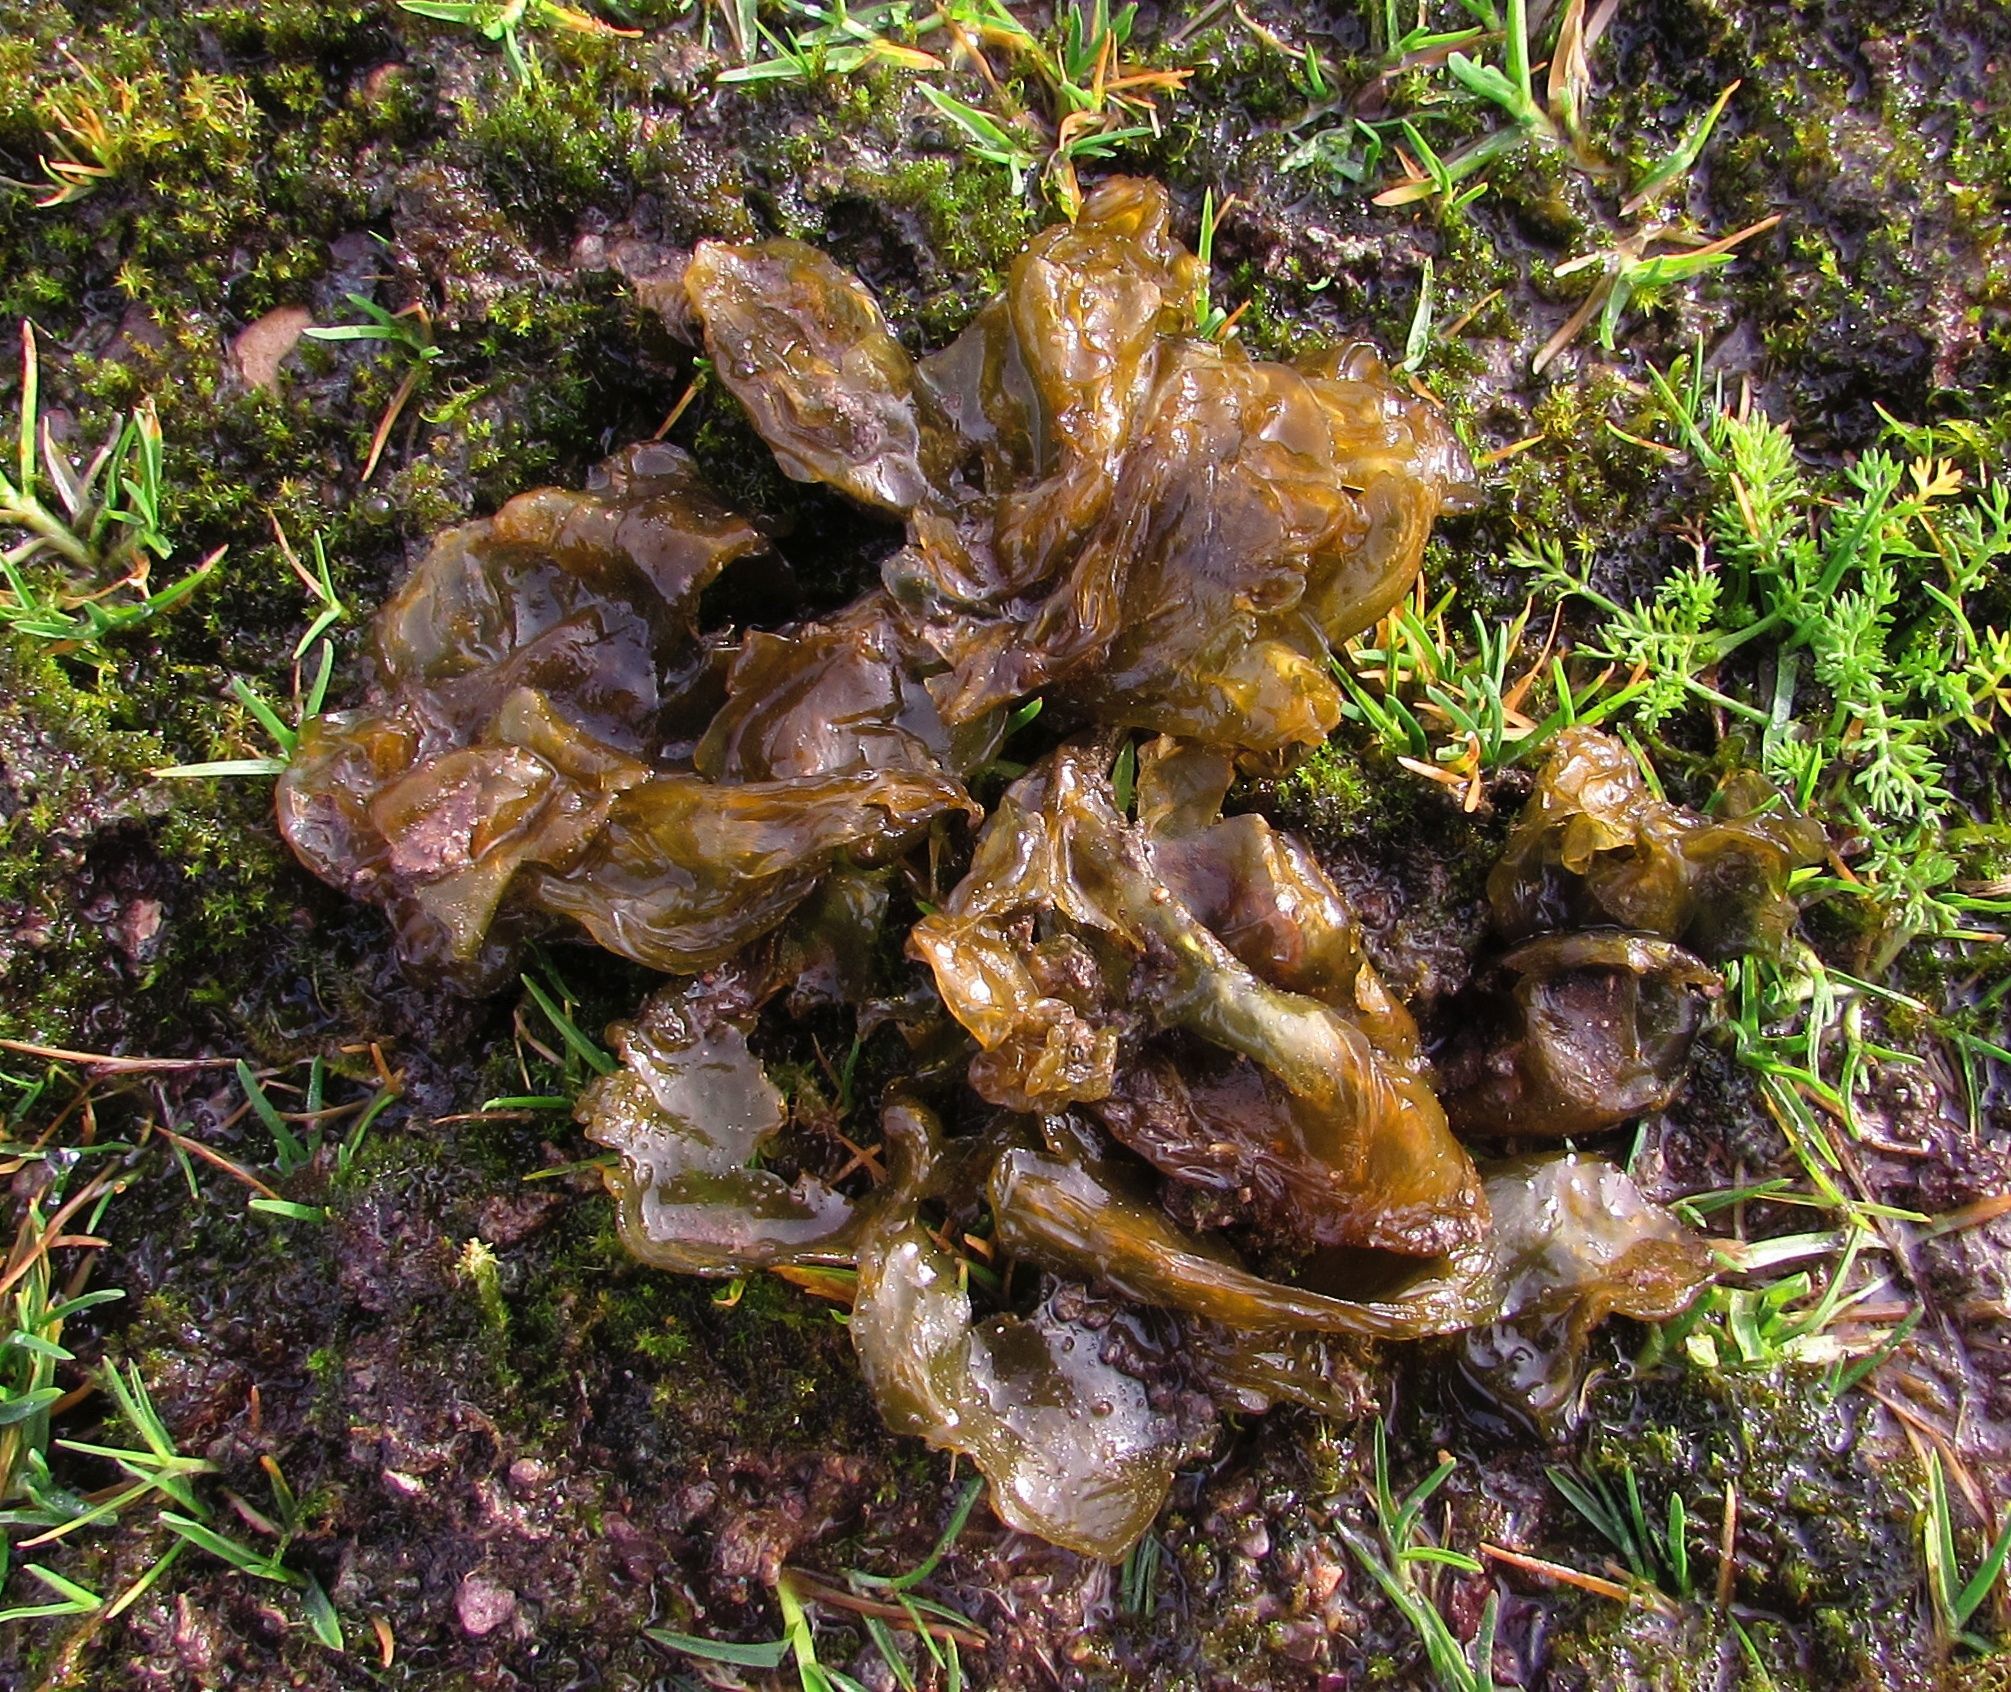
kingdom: Bacteria
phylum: Cyanobacteria
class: Cyanobacteriia
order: Cyanobacteriales
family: Nostocaceae
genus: Nostoc
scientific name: Nostoc commune
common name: Star jelly
